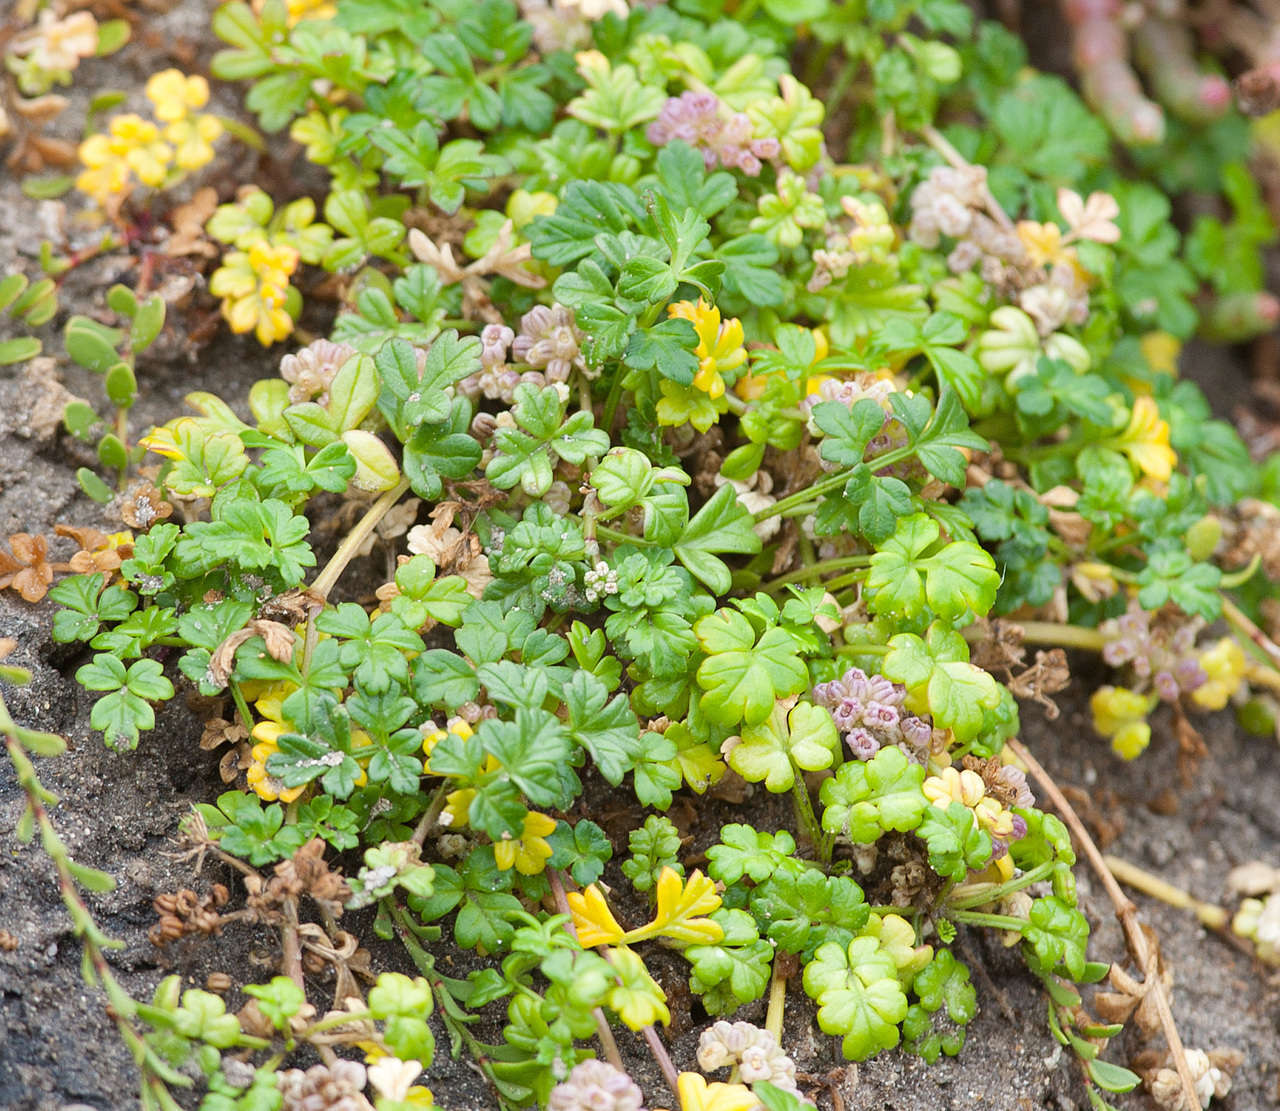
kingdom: Plantae
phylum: Tracheophyta
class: Magnoliopsida
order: Apiales
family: Apiaceae
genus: Apium
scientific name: Apium prostratum
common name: Prostrate marshwort
